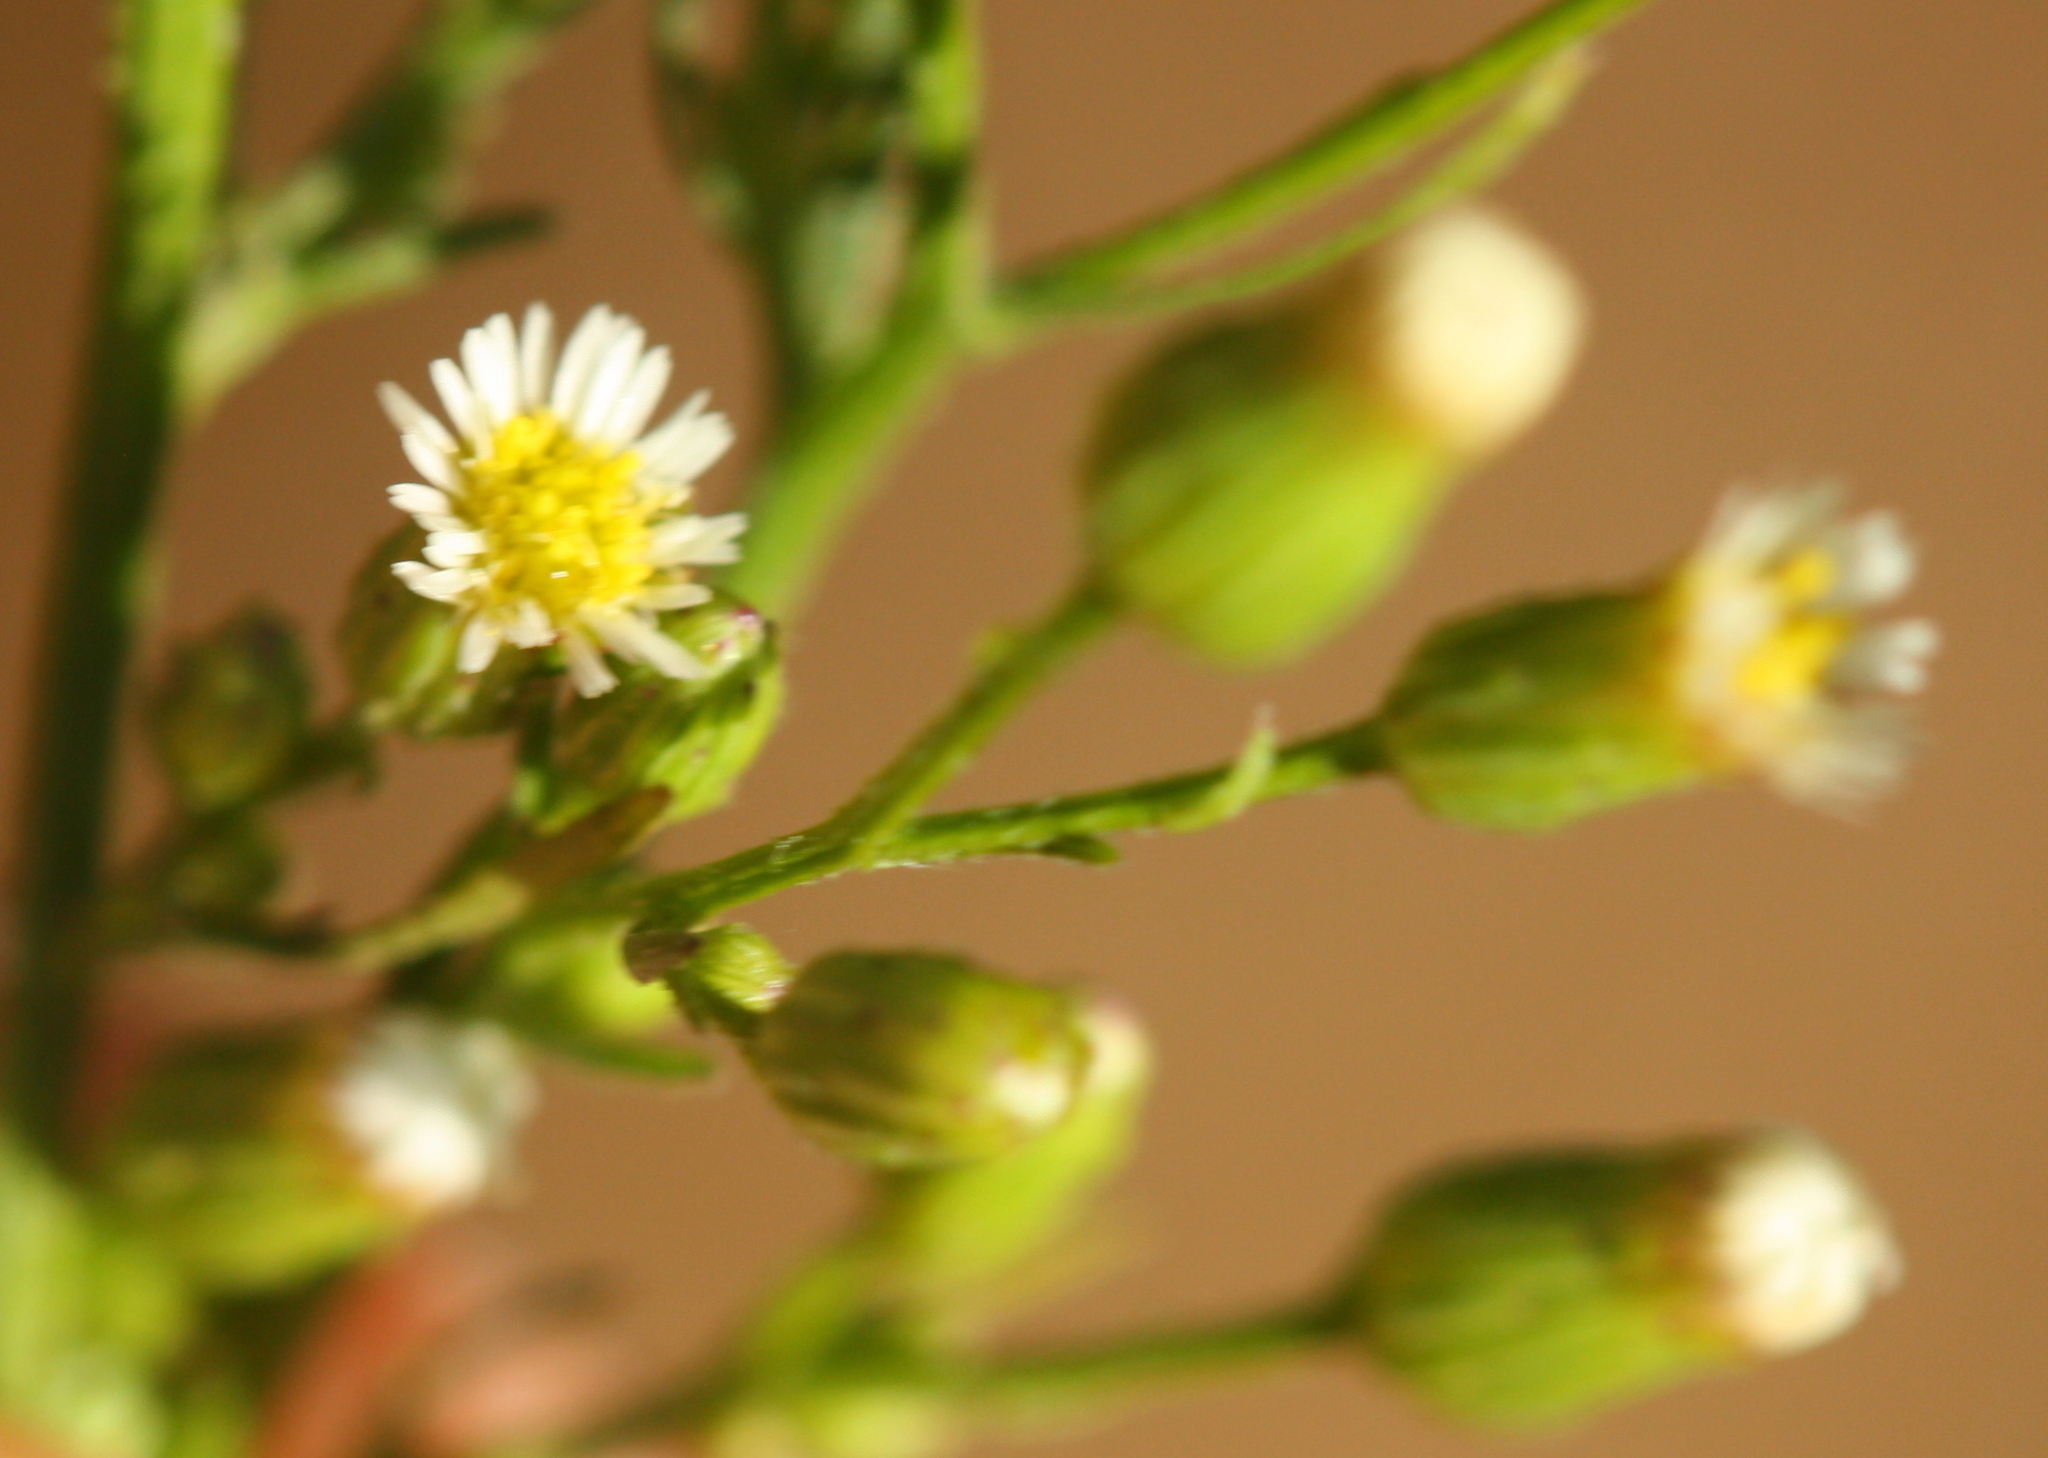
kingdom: Plantae
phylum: Tracheophyta
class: Magnoliopsida
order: Asterales
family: Asteraceae
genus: Erigeron
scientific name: Erigeron canadensis
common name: Canadian fleabane
